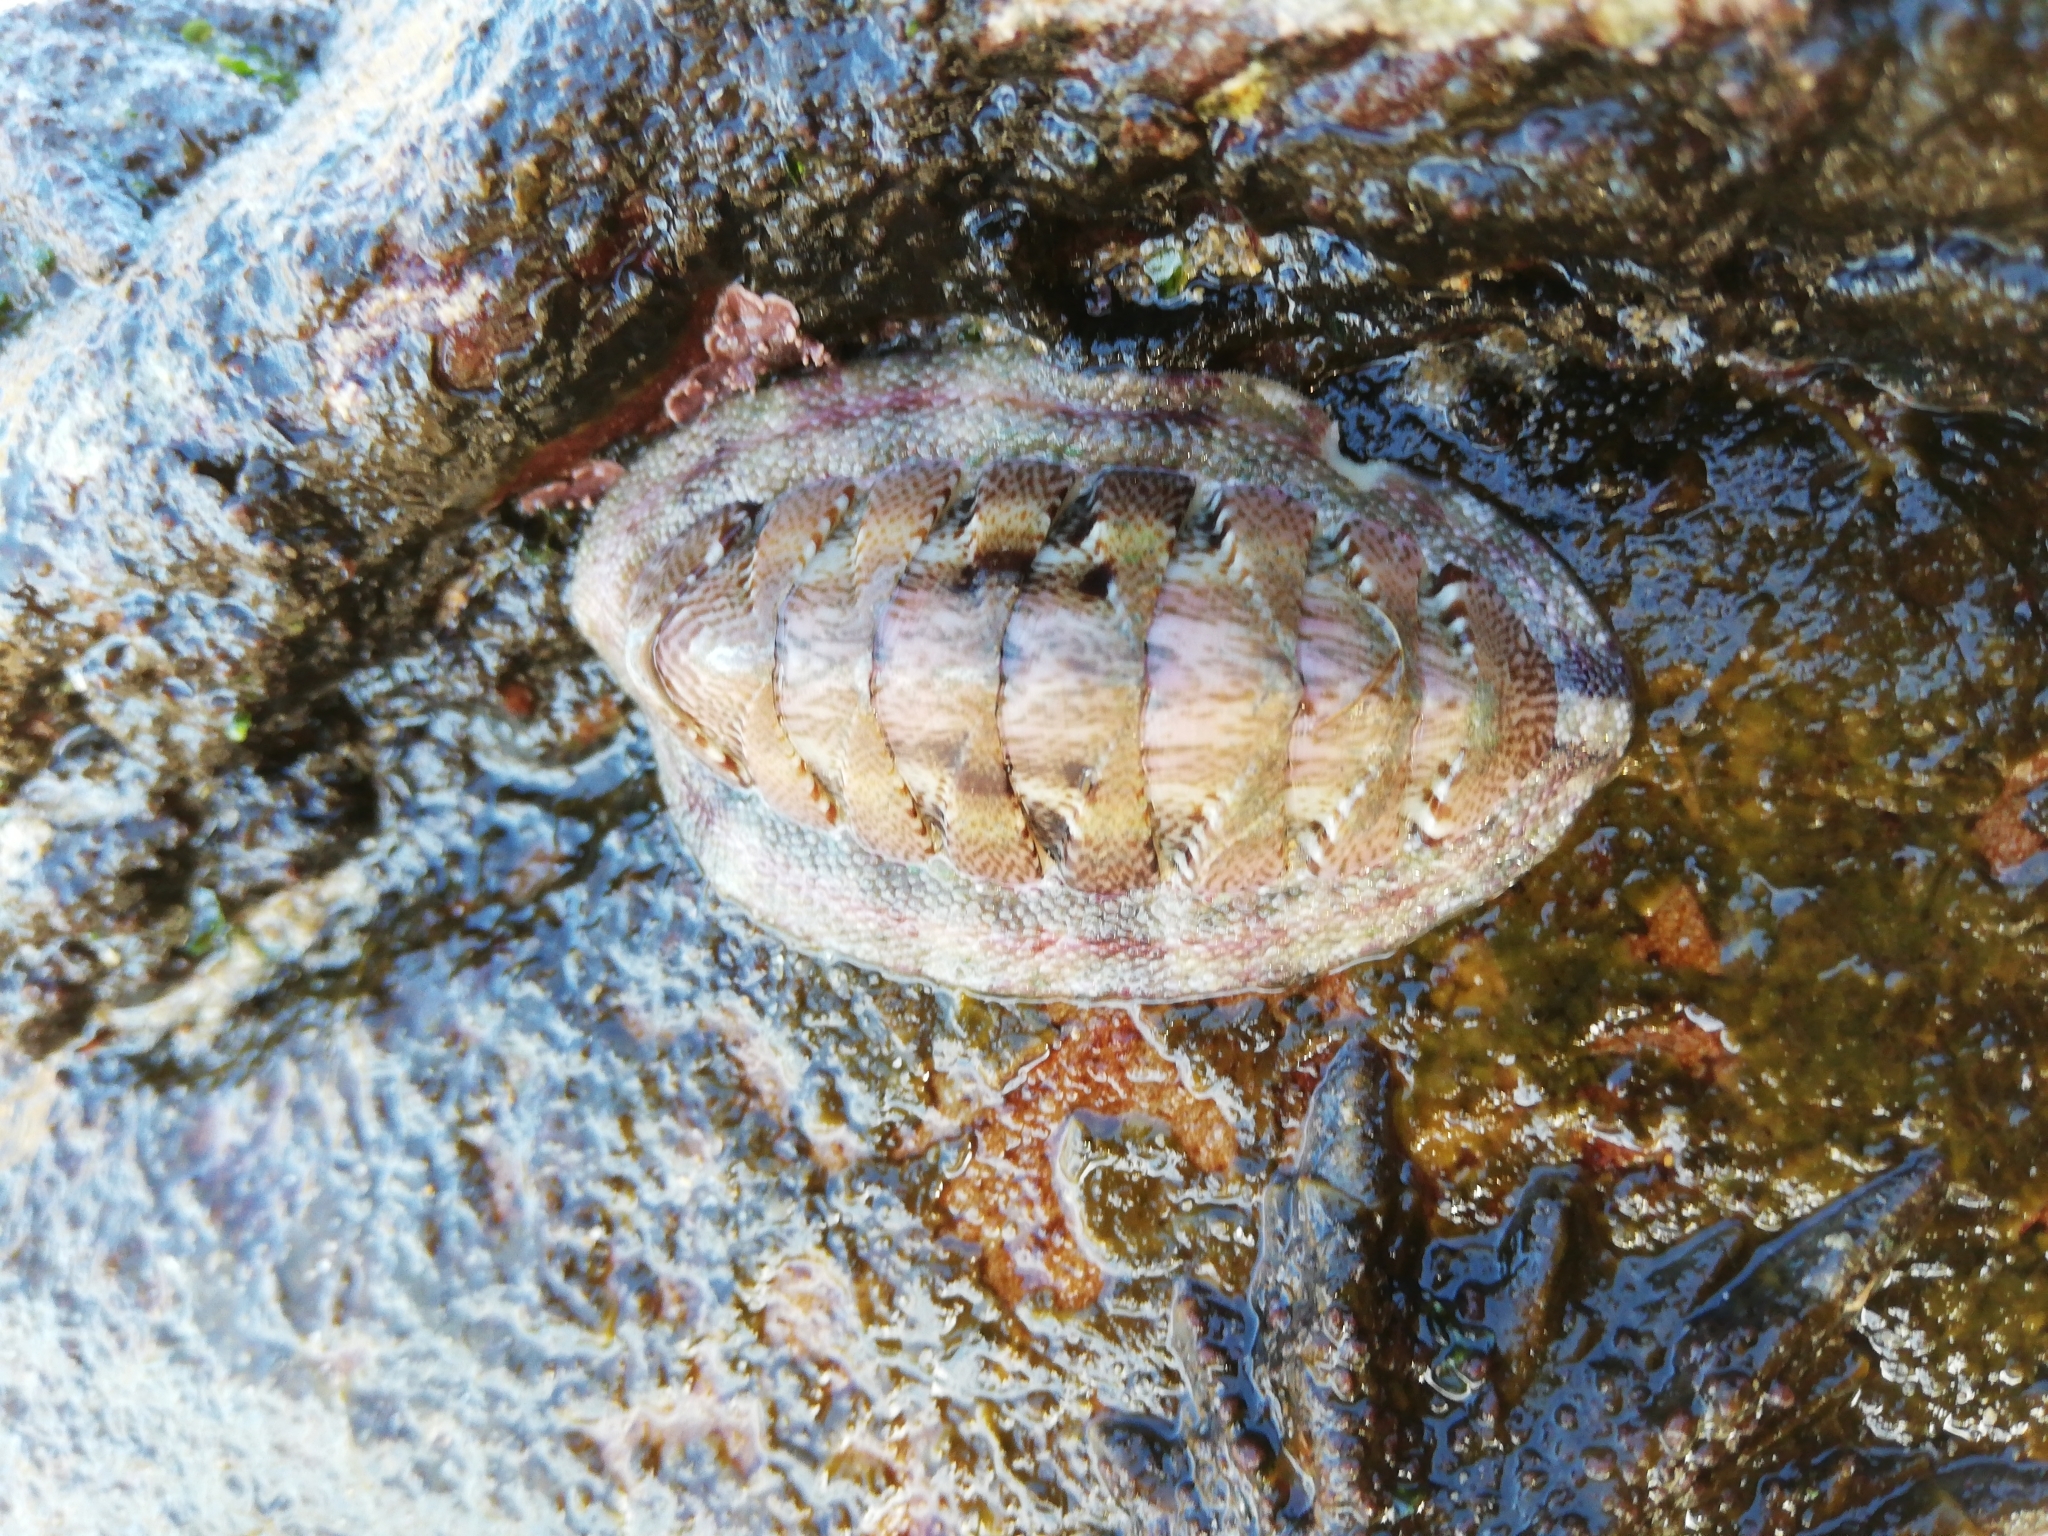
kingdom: Animalia
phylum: Mollusca
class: Polyplacophora
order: Chitonida
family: Chitonidae
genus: Rhyssoplax
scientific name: Rhyssoplax polita
